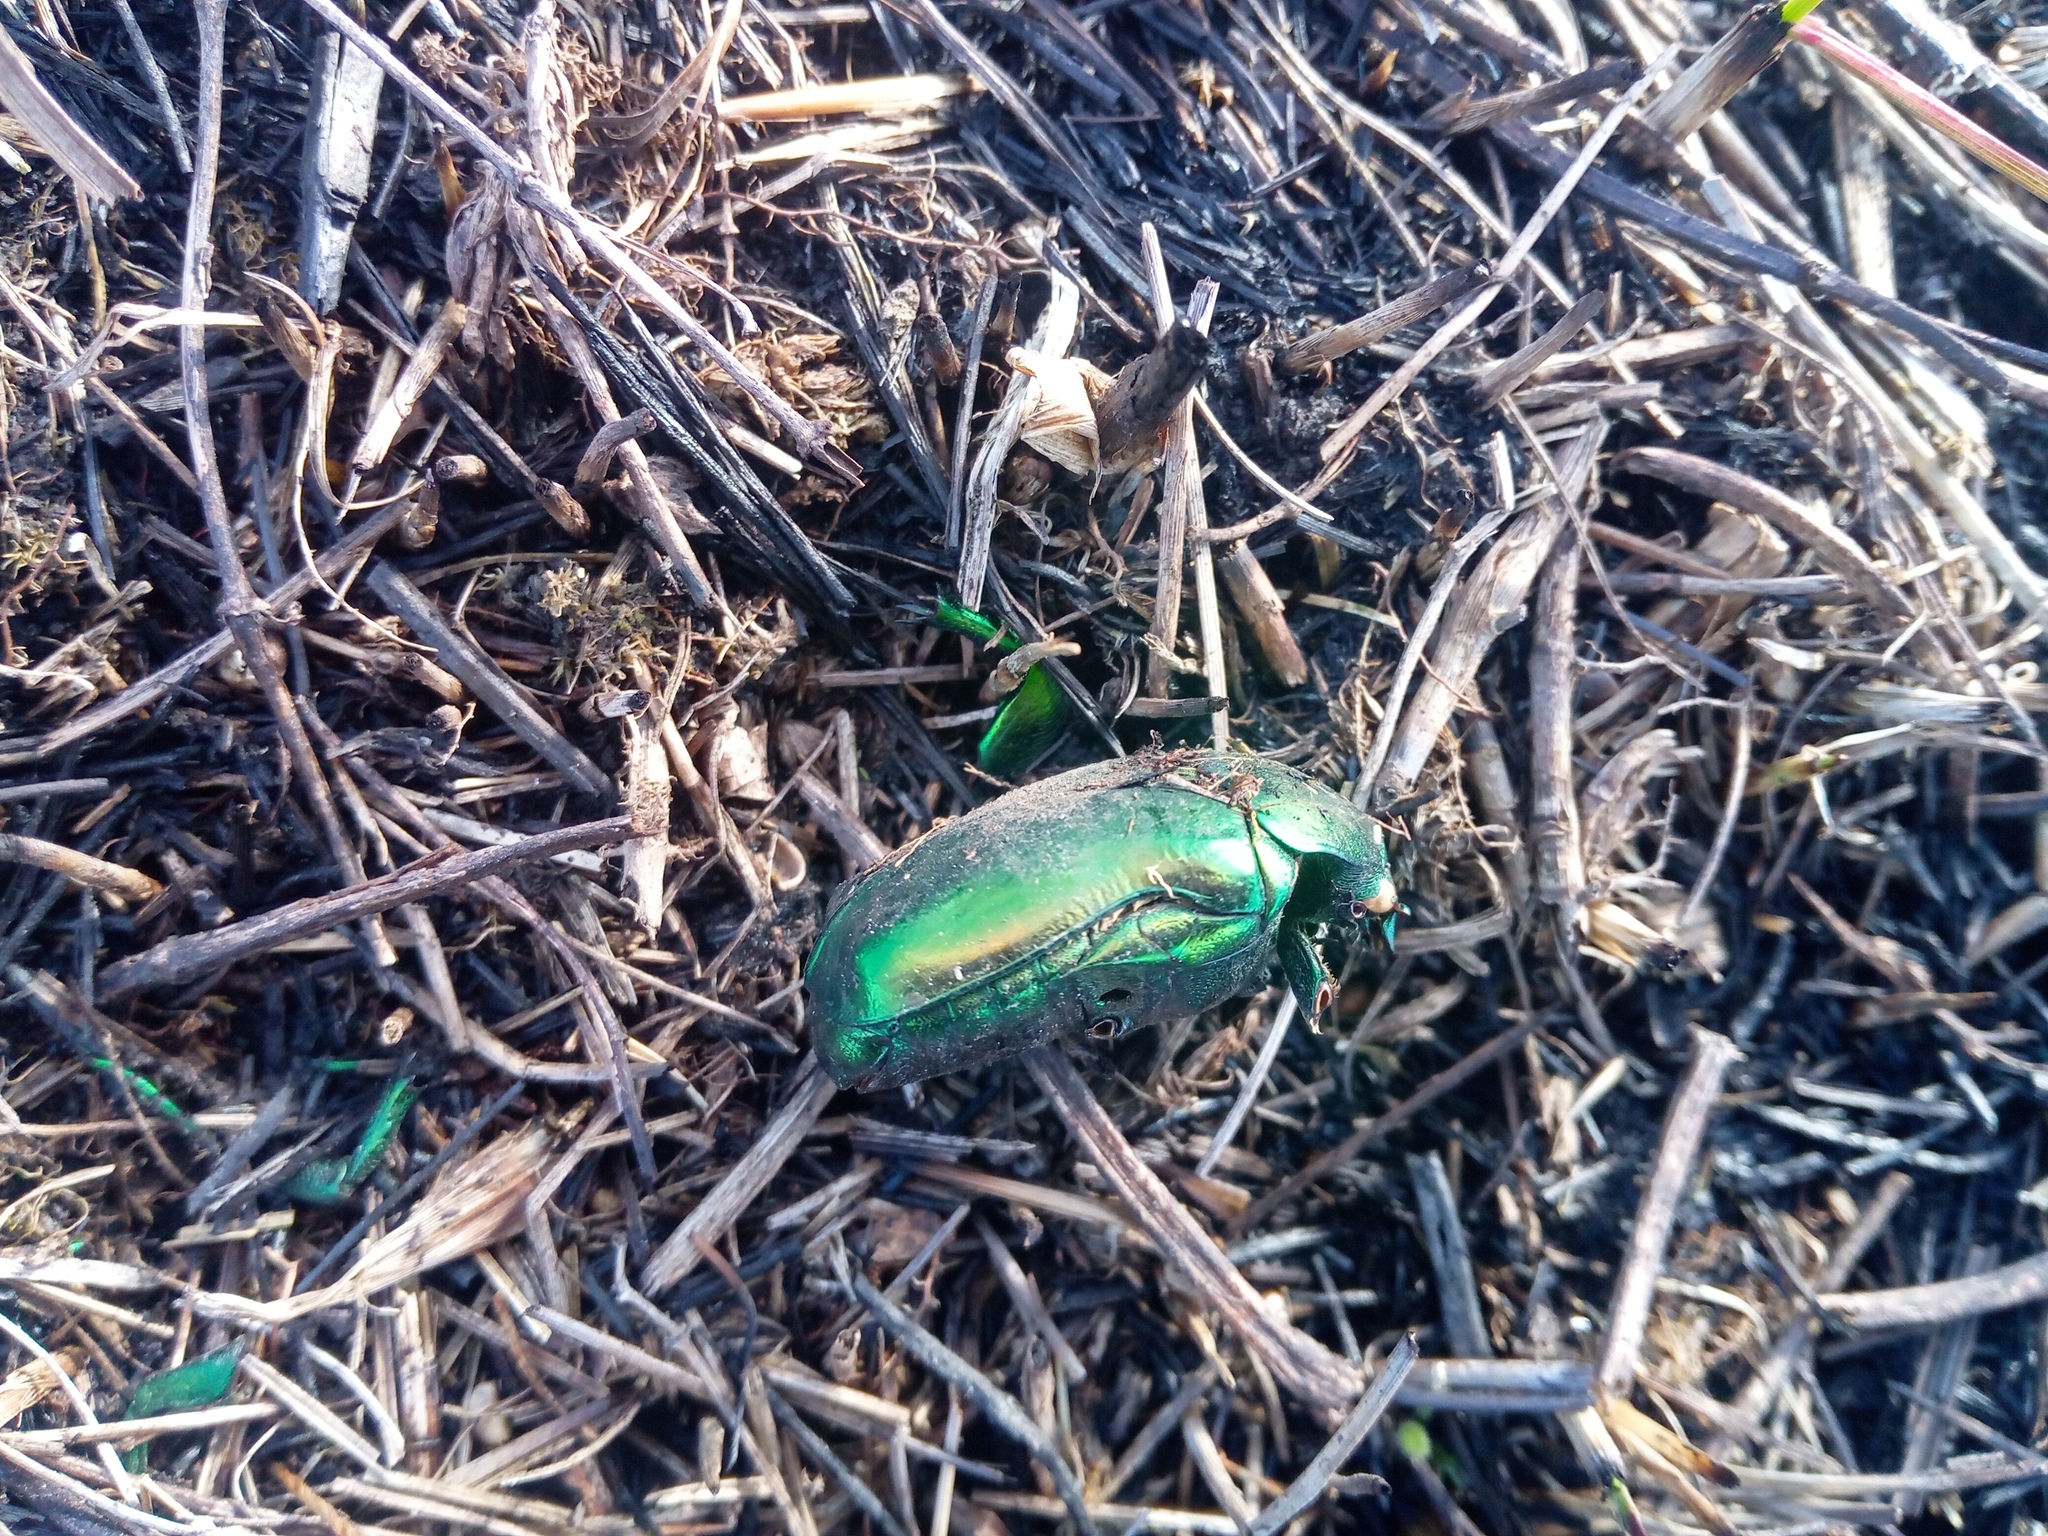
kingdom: Animalia
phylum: Arthropoda
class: Insecta
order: Coleoptera
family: Scarabaeidae
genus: Protaetia
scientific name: Protaetia speciosissima
